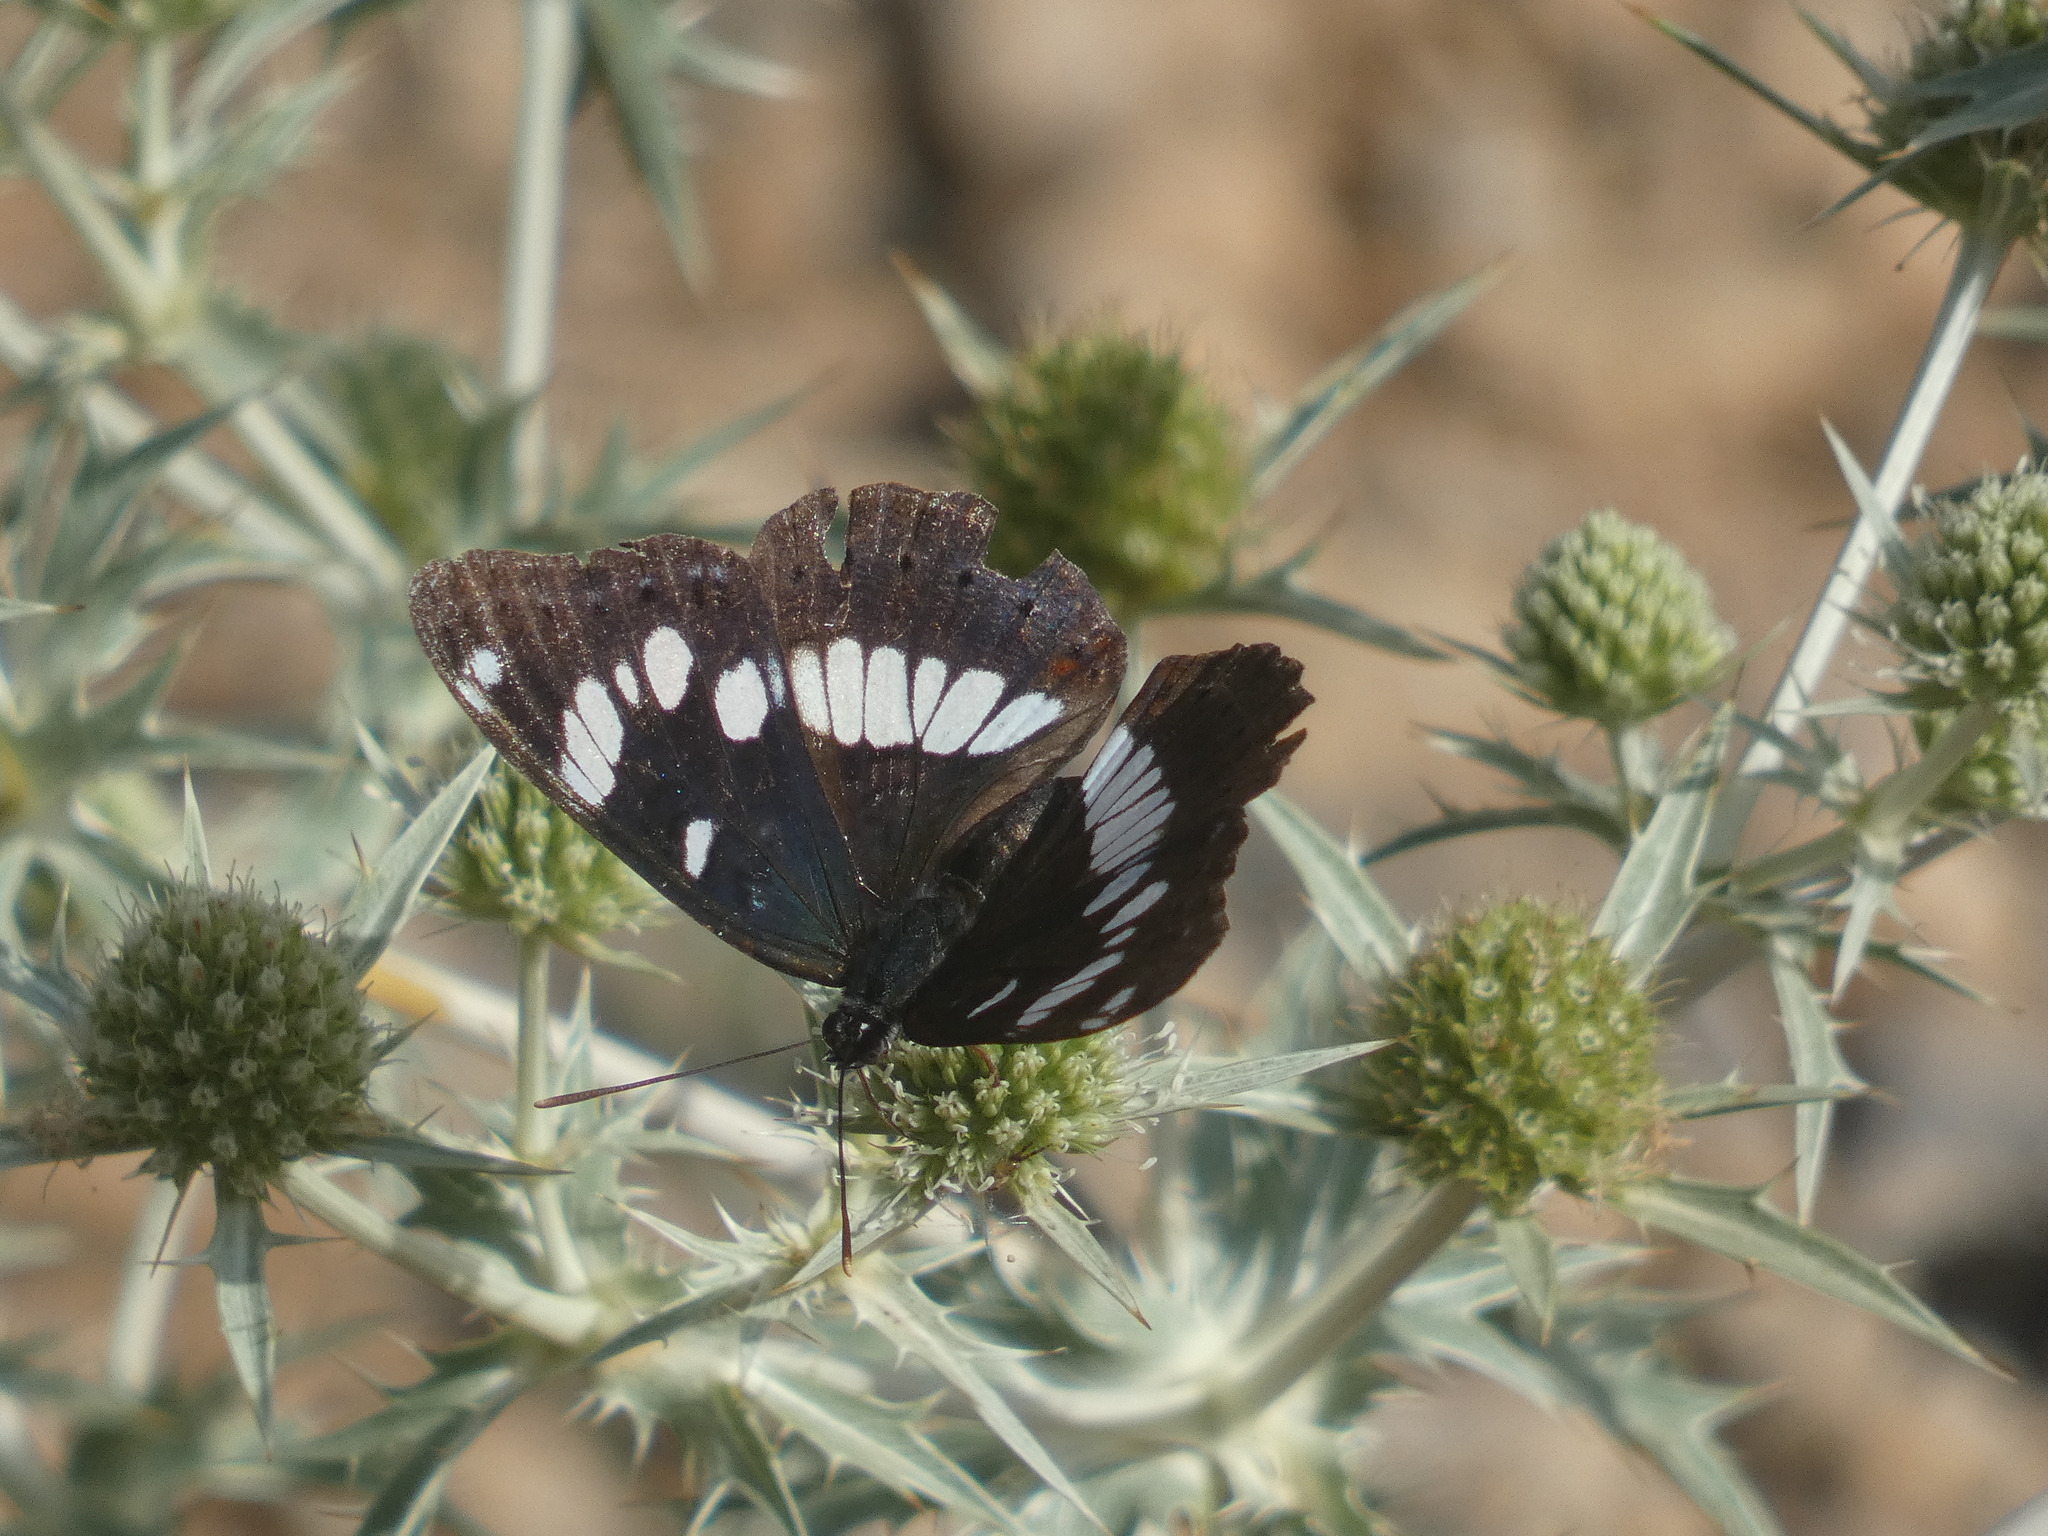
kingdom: Animalia
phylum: Arthropoda
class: Insecta
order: Lepidoptera
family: Nymphalidae
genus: Limenitis
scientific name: Limenitis reducta
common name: Southern white admiral
